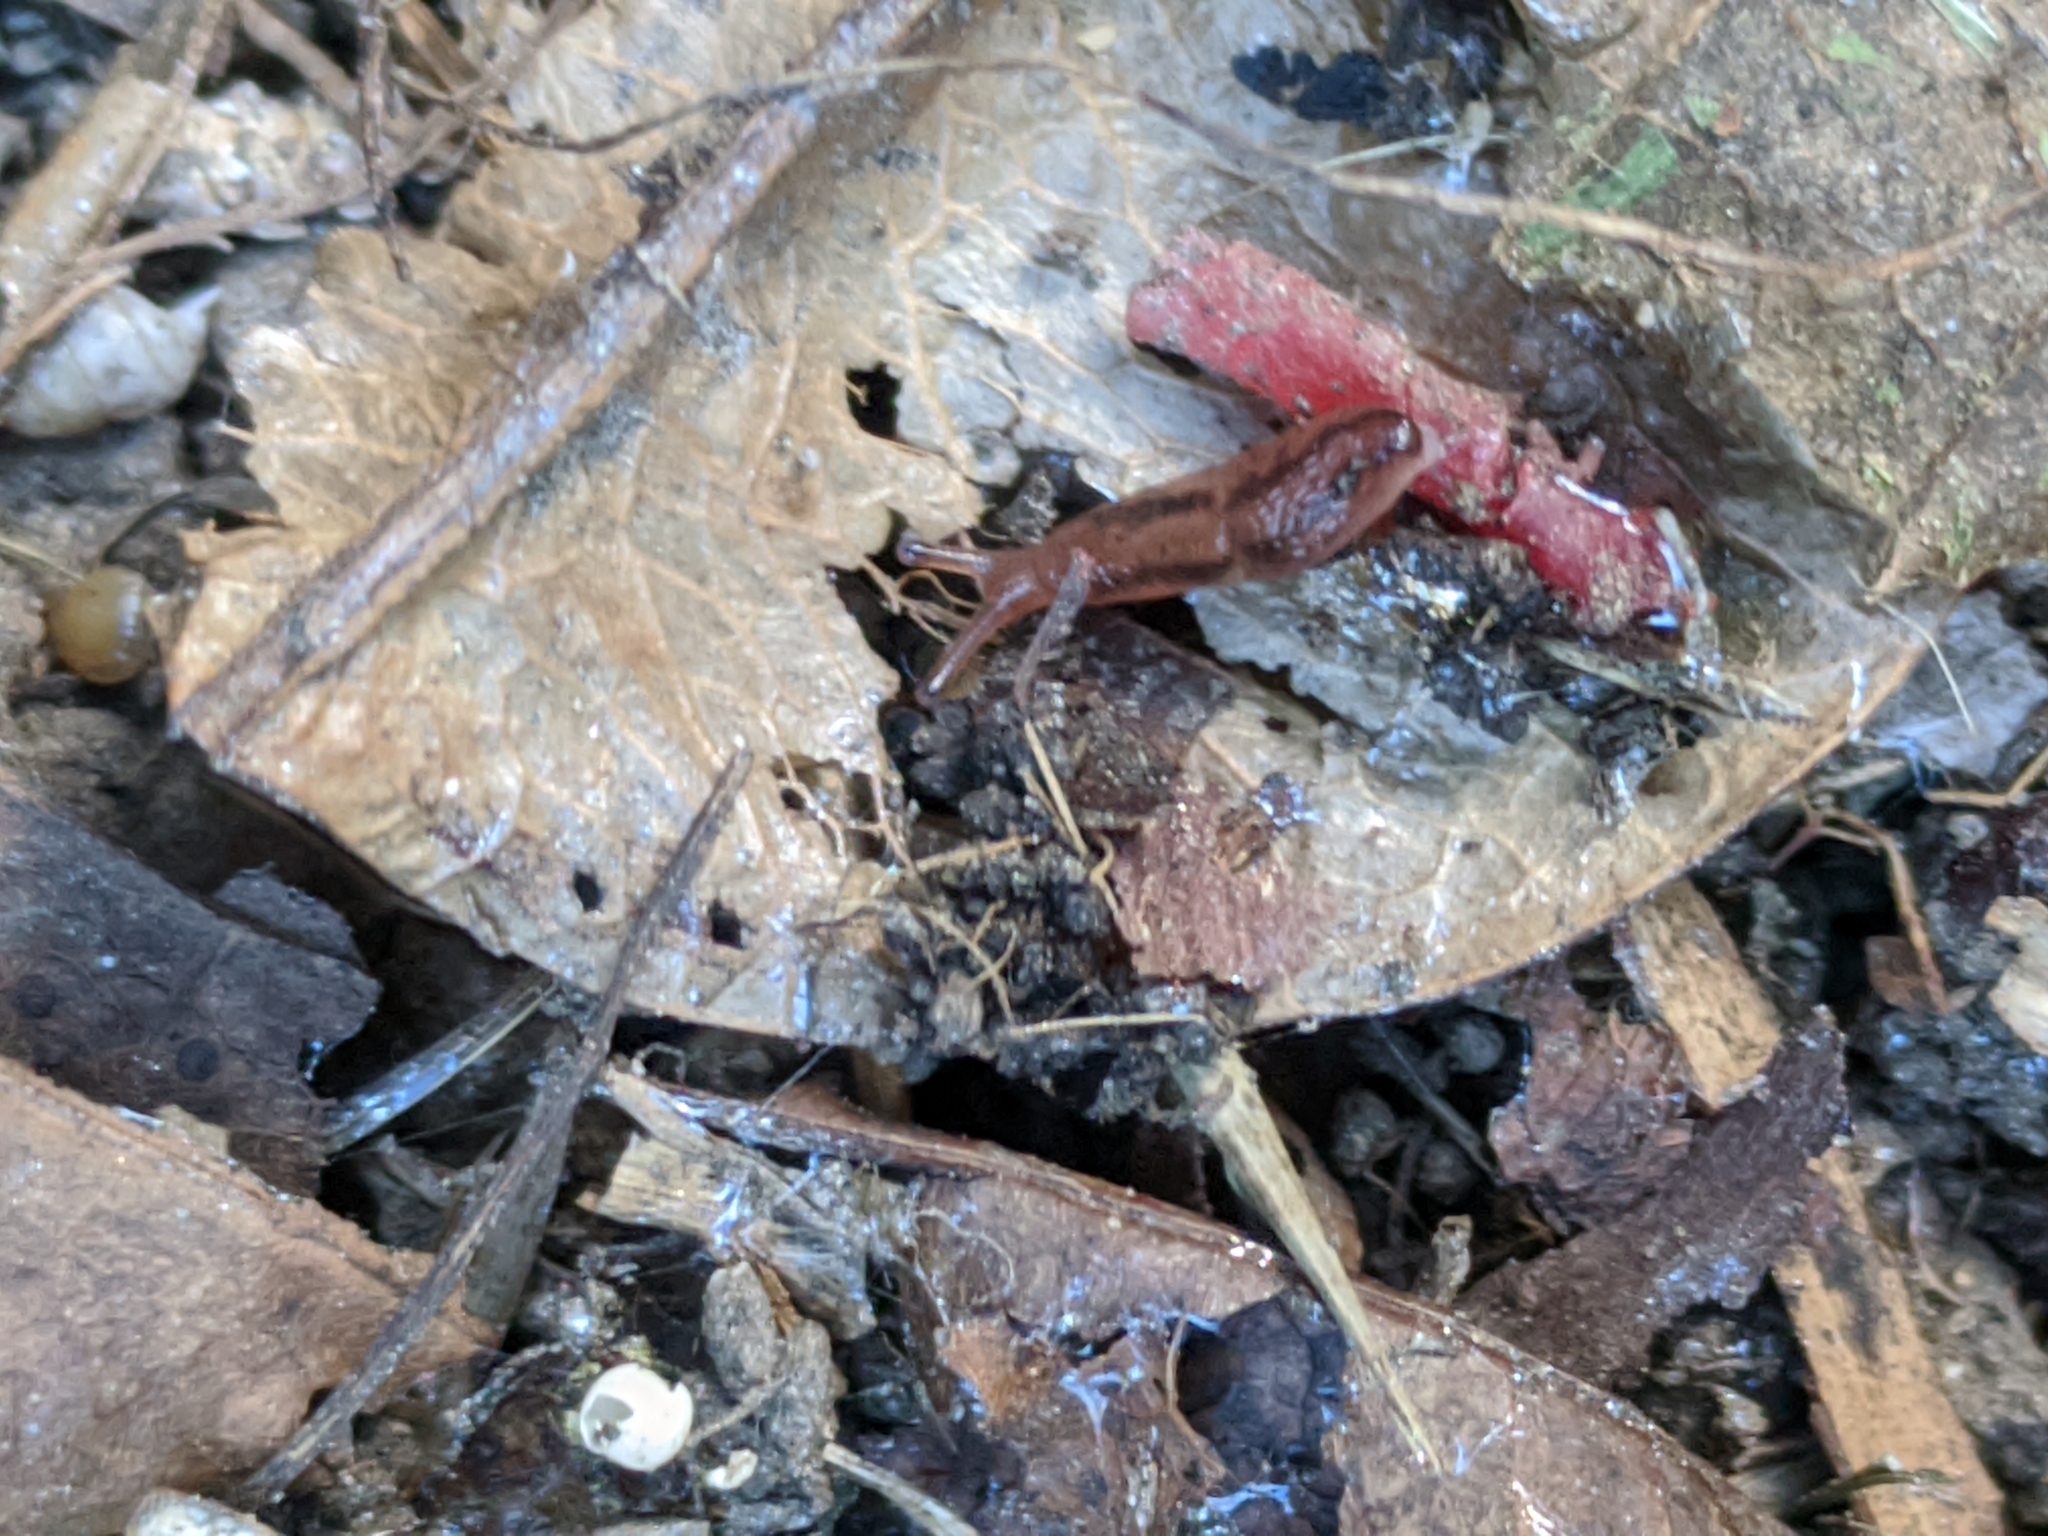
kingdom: Animalia
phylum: Mollusca
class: Gastropoda
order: Stylommatophora
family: Limacidae
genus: Ambigolimax
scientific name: Ambigolimax
